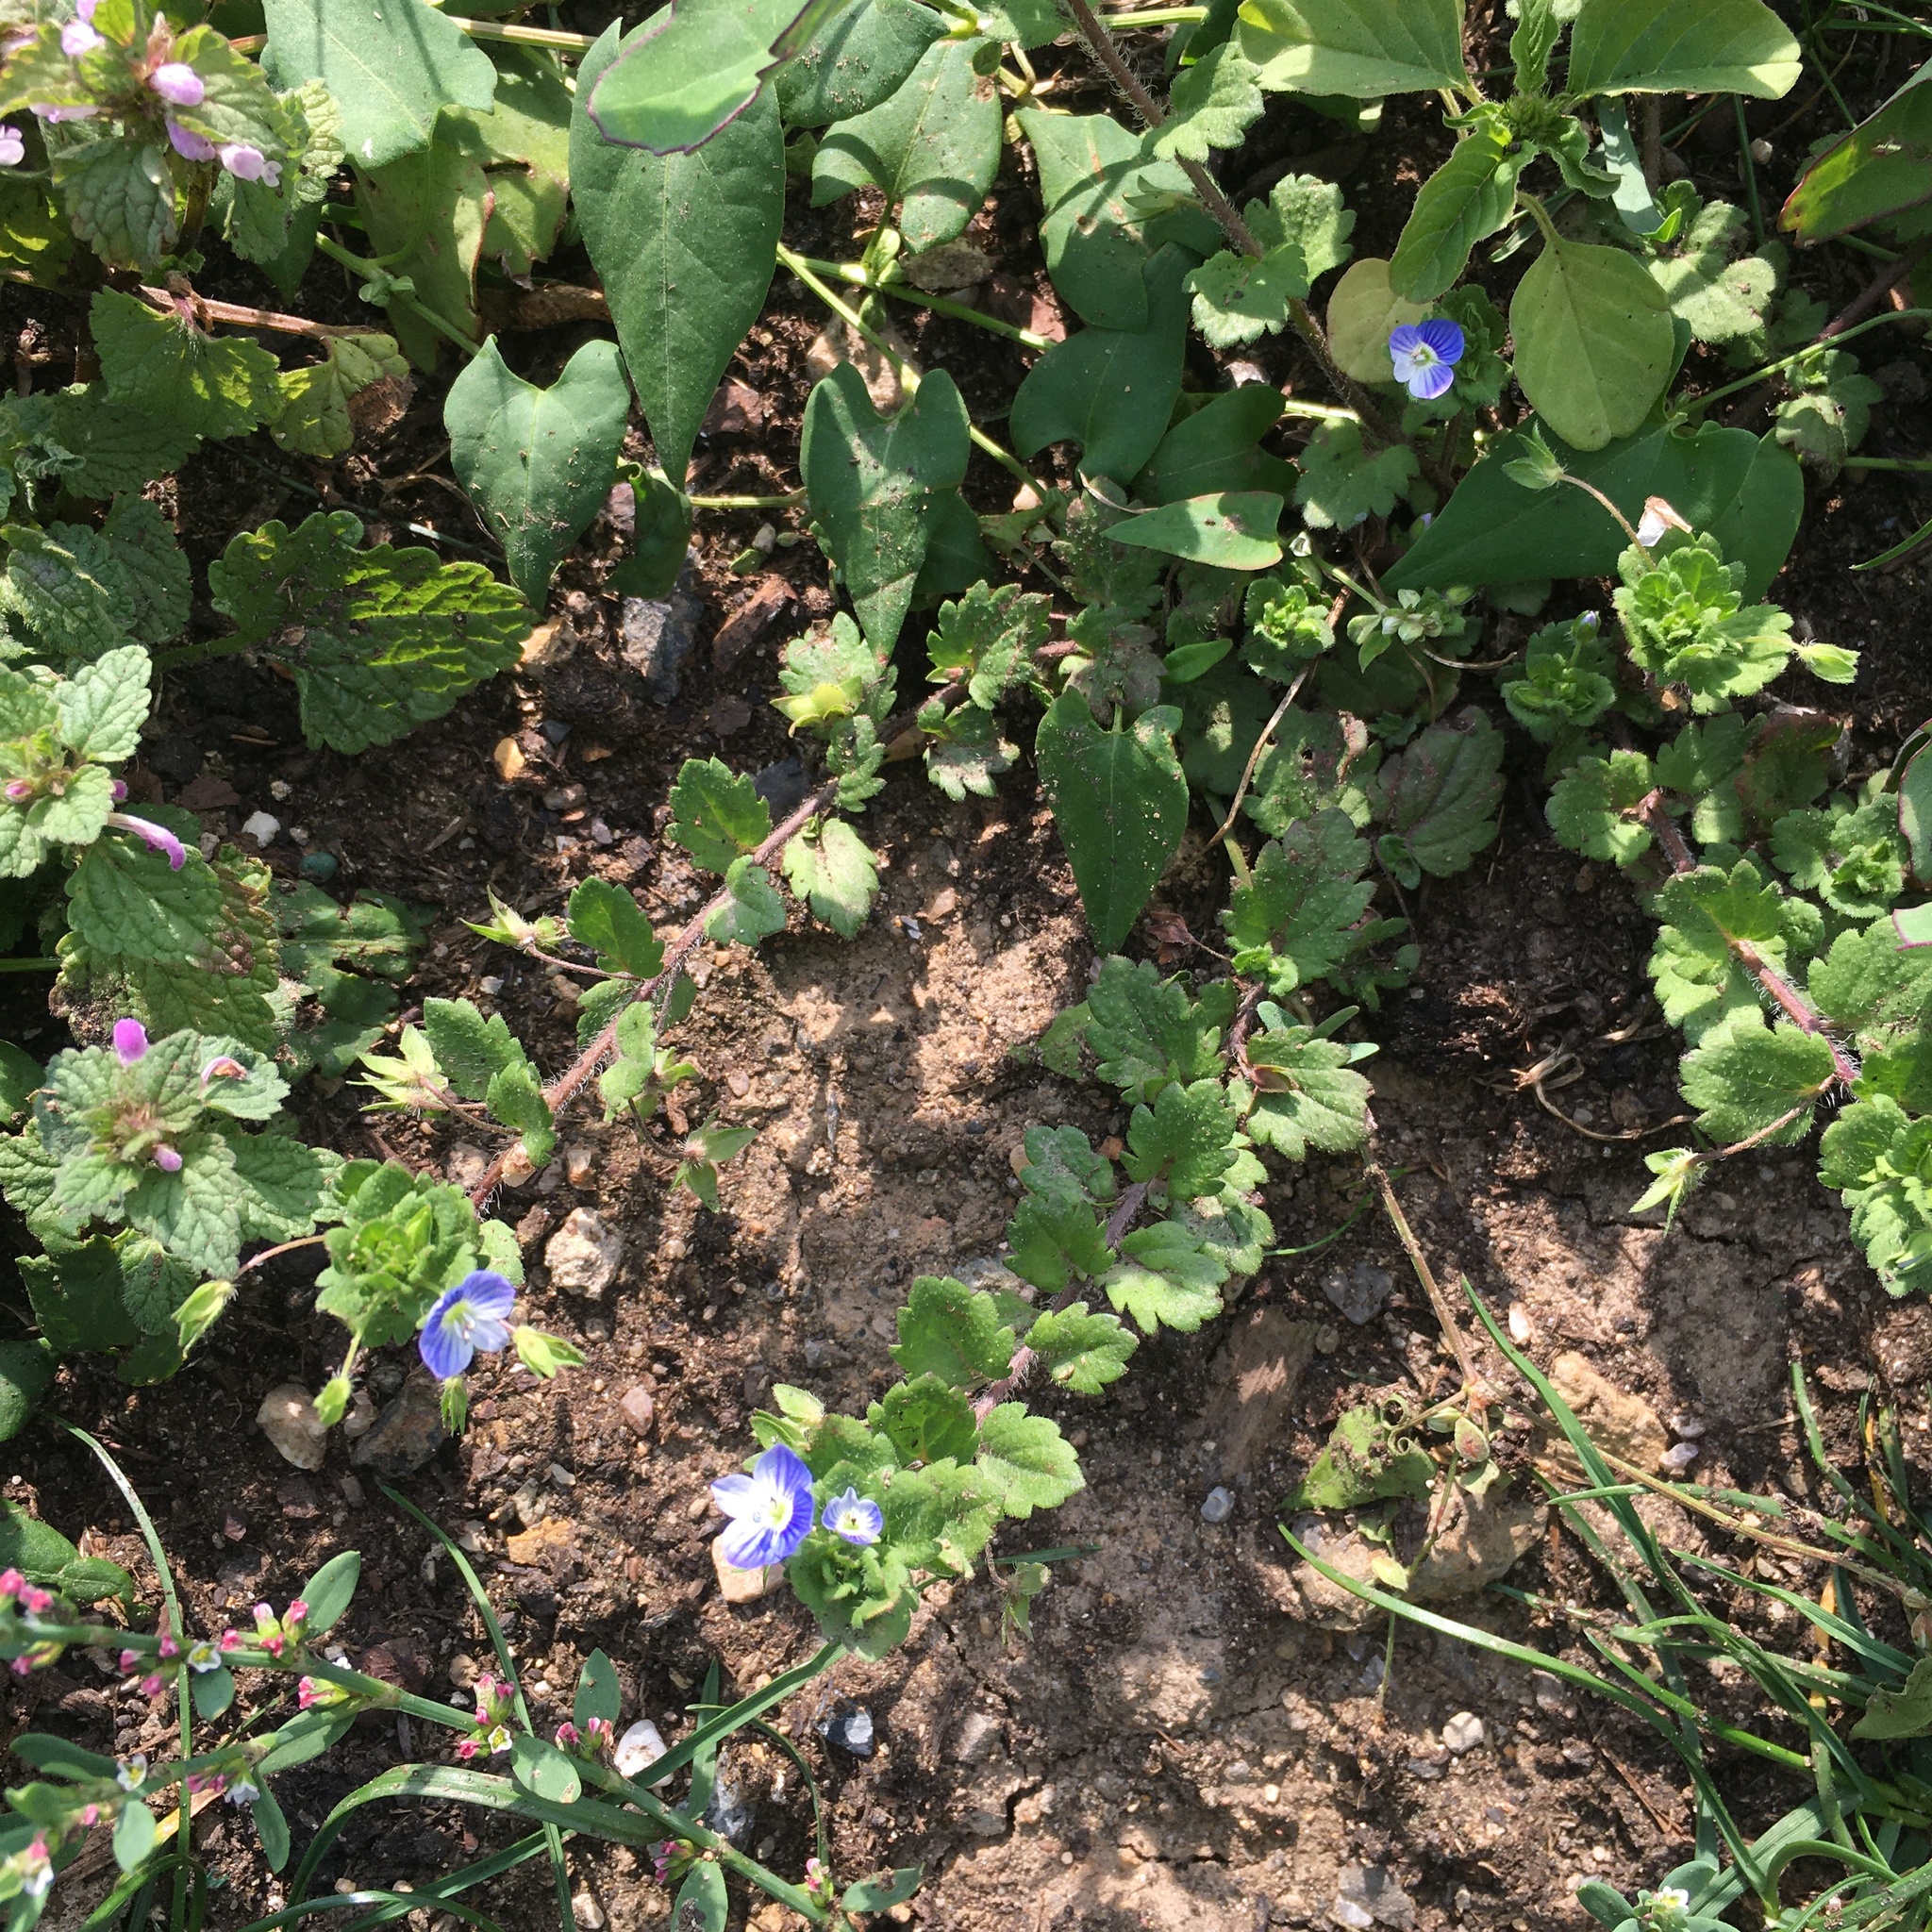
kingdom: Plantae
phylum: Tracheophyta
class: Magnoliopsida
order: Lamiales
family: Plantaginaceae
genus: Veronica
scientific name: Veronica persica
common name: Common field-speedwell
